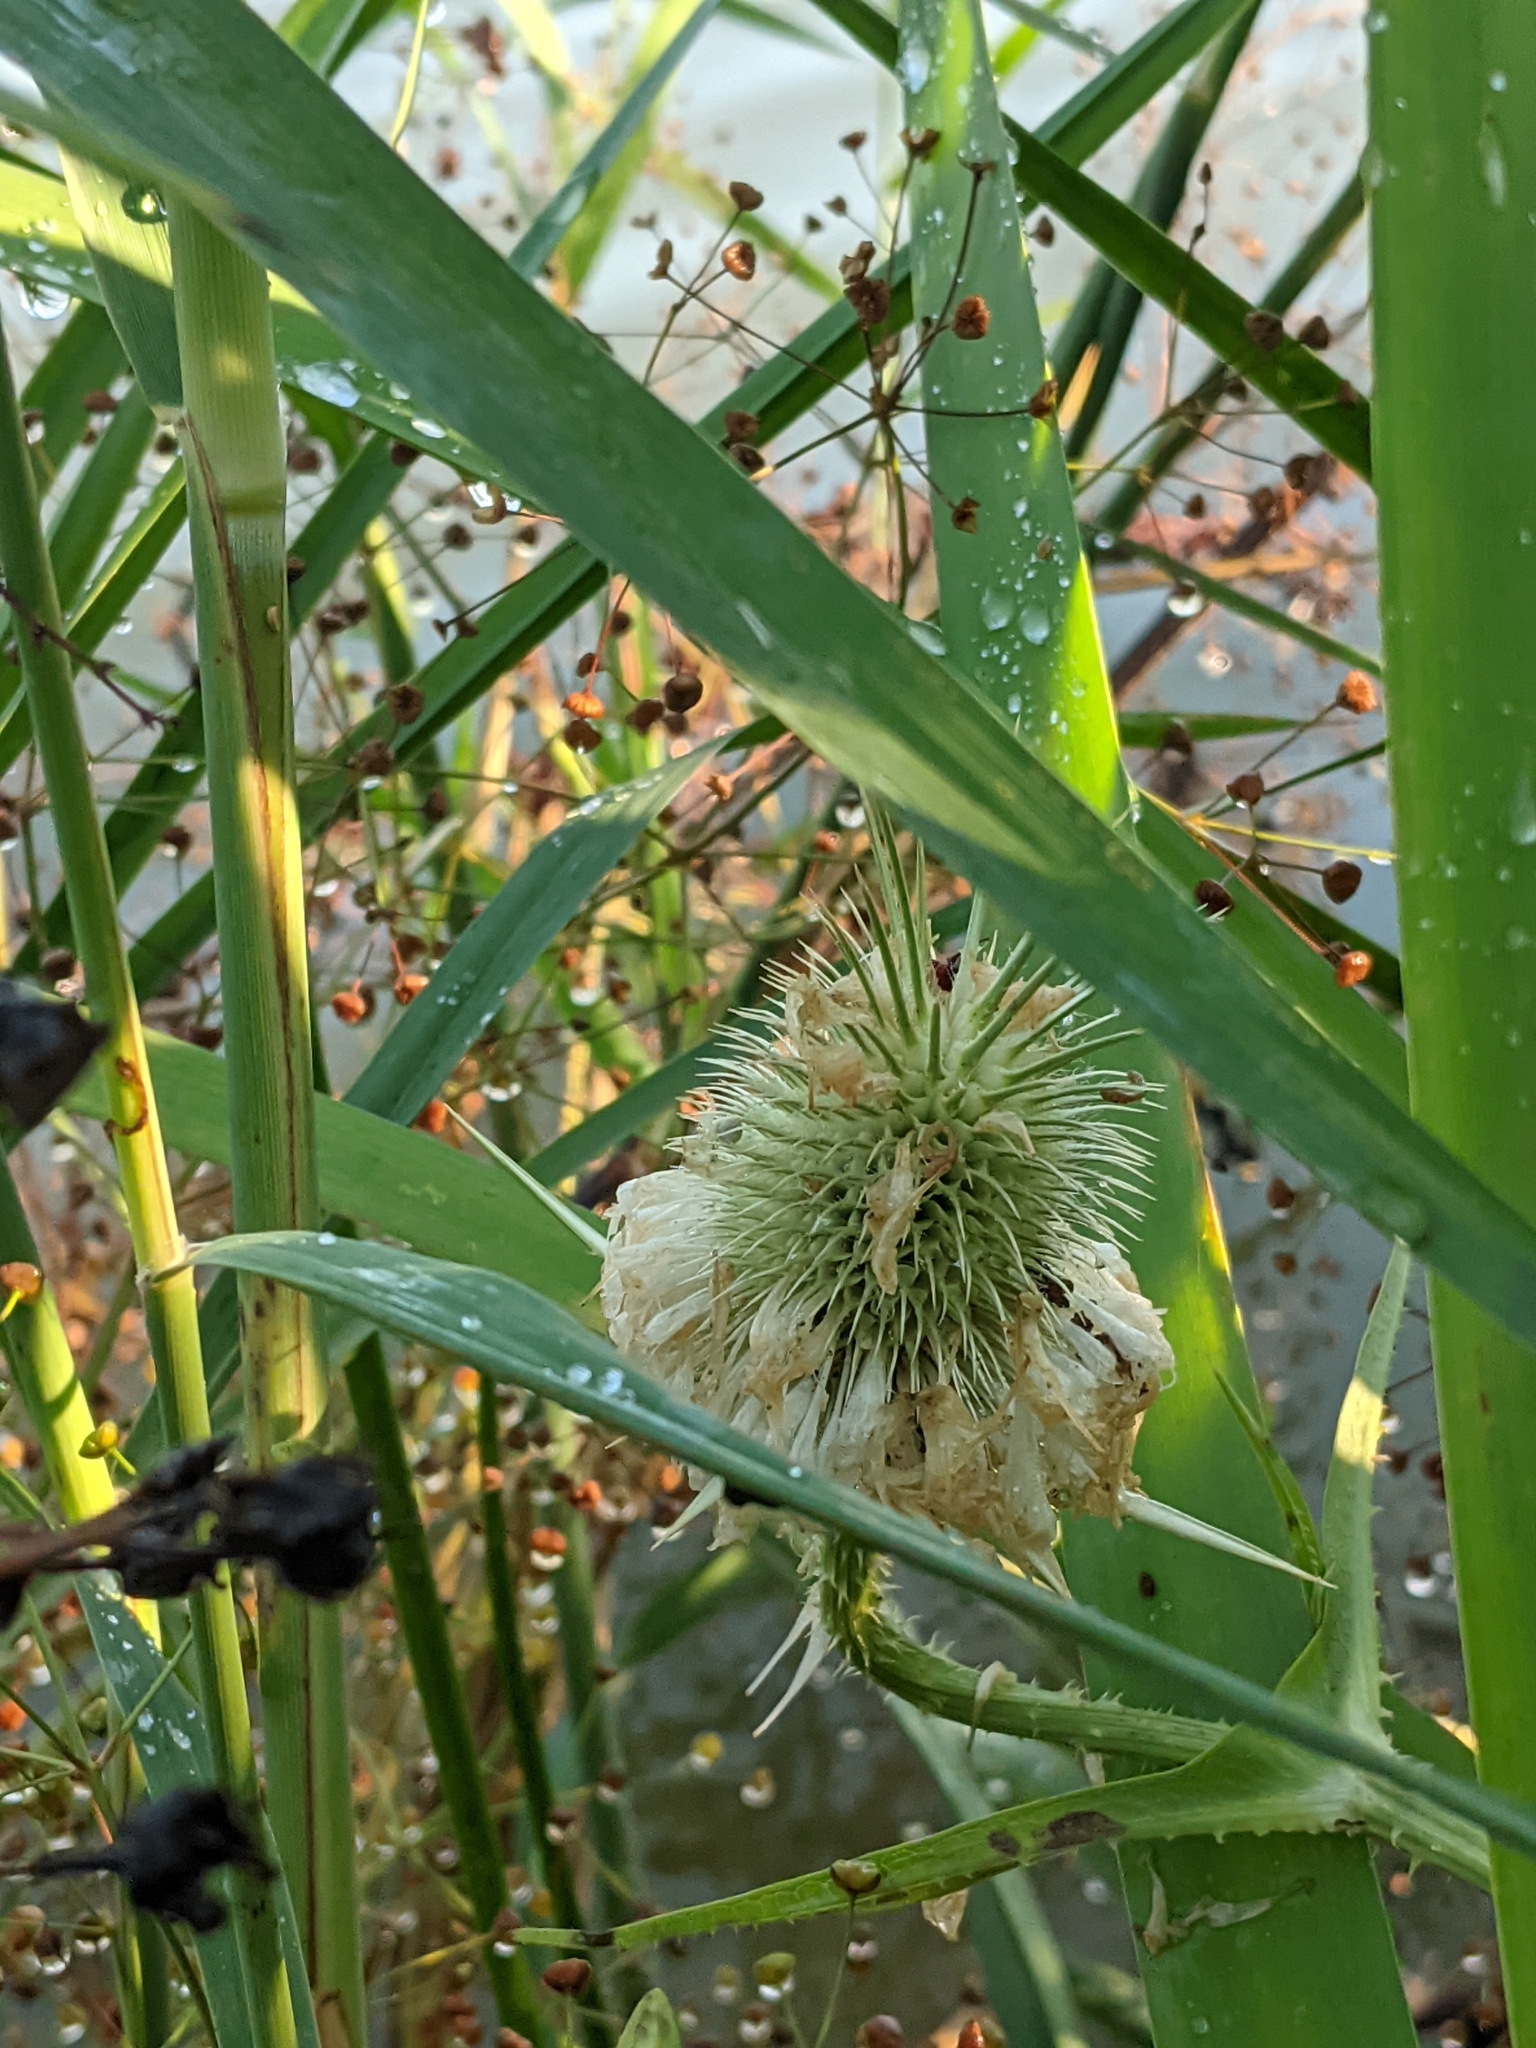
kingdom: Plantae
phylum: Tracheophyta
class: Magnoliopsida
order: Dipsacales
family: Caprifoliaceae
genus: Dipsacus
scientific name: Dipsacus laciniatus
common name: Cut-leaved teasel
